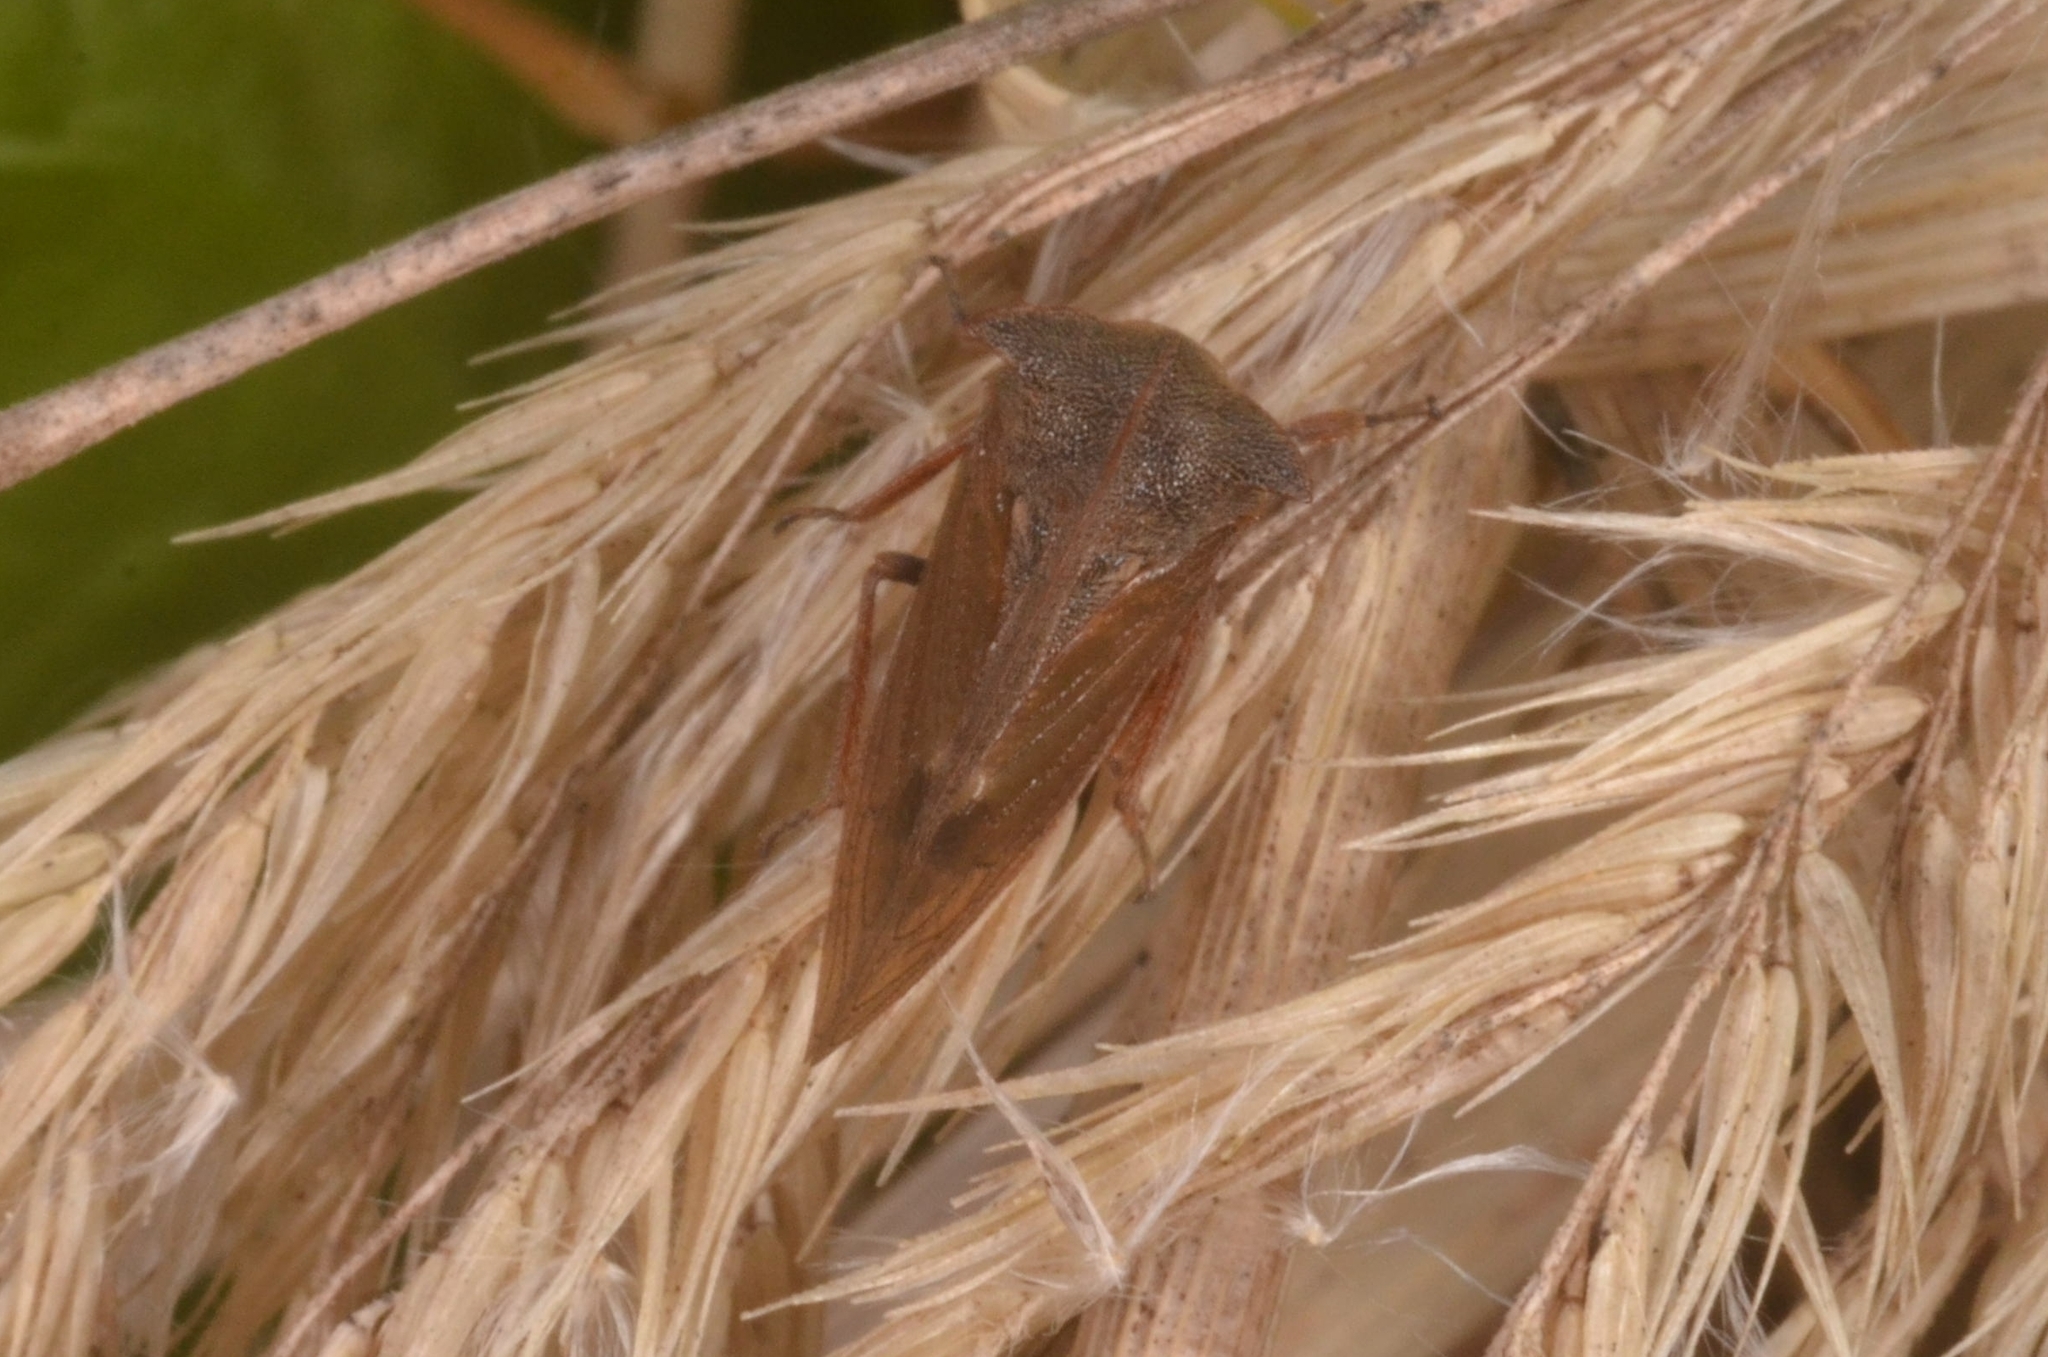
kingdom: Animalia
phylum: Arthropoda
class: Insecta
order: Hemiptera
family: Membracidae
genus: Centrotus
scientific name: Centrotus cornuta
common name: Treehopper
